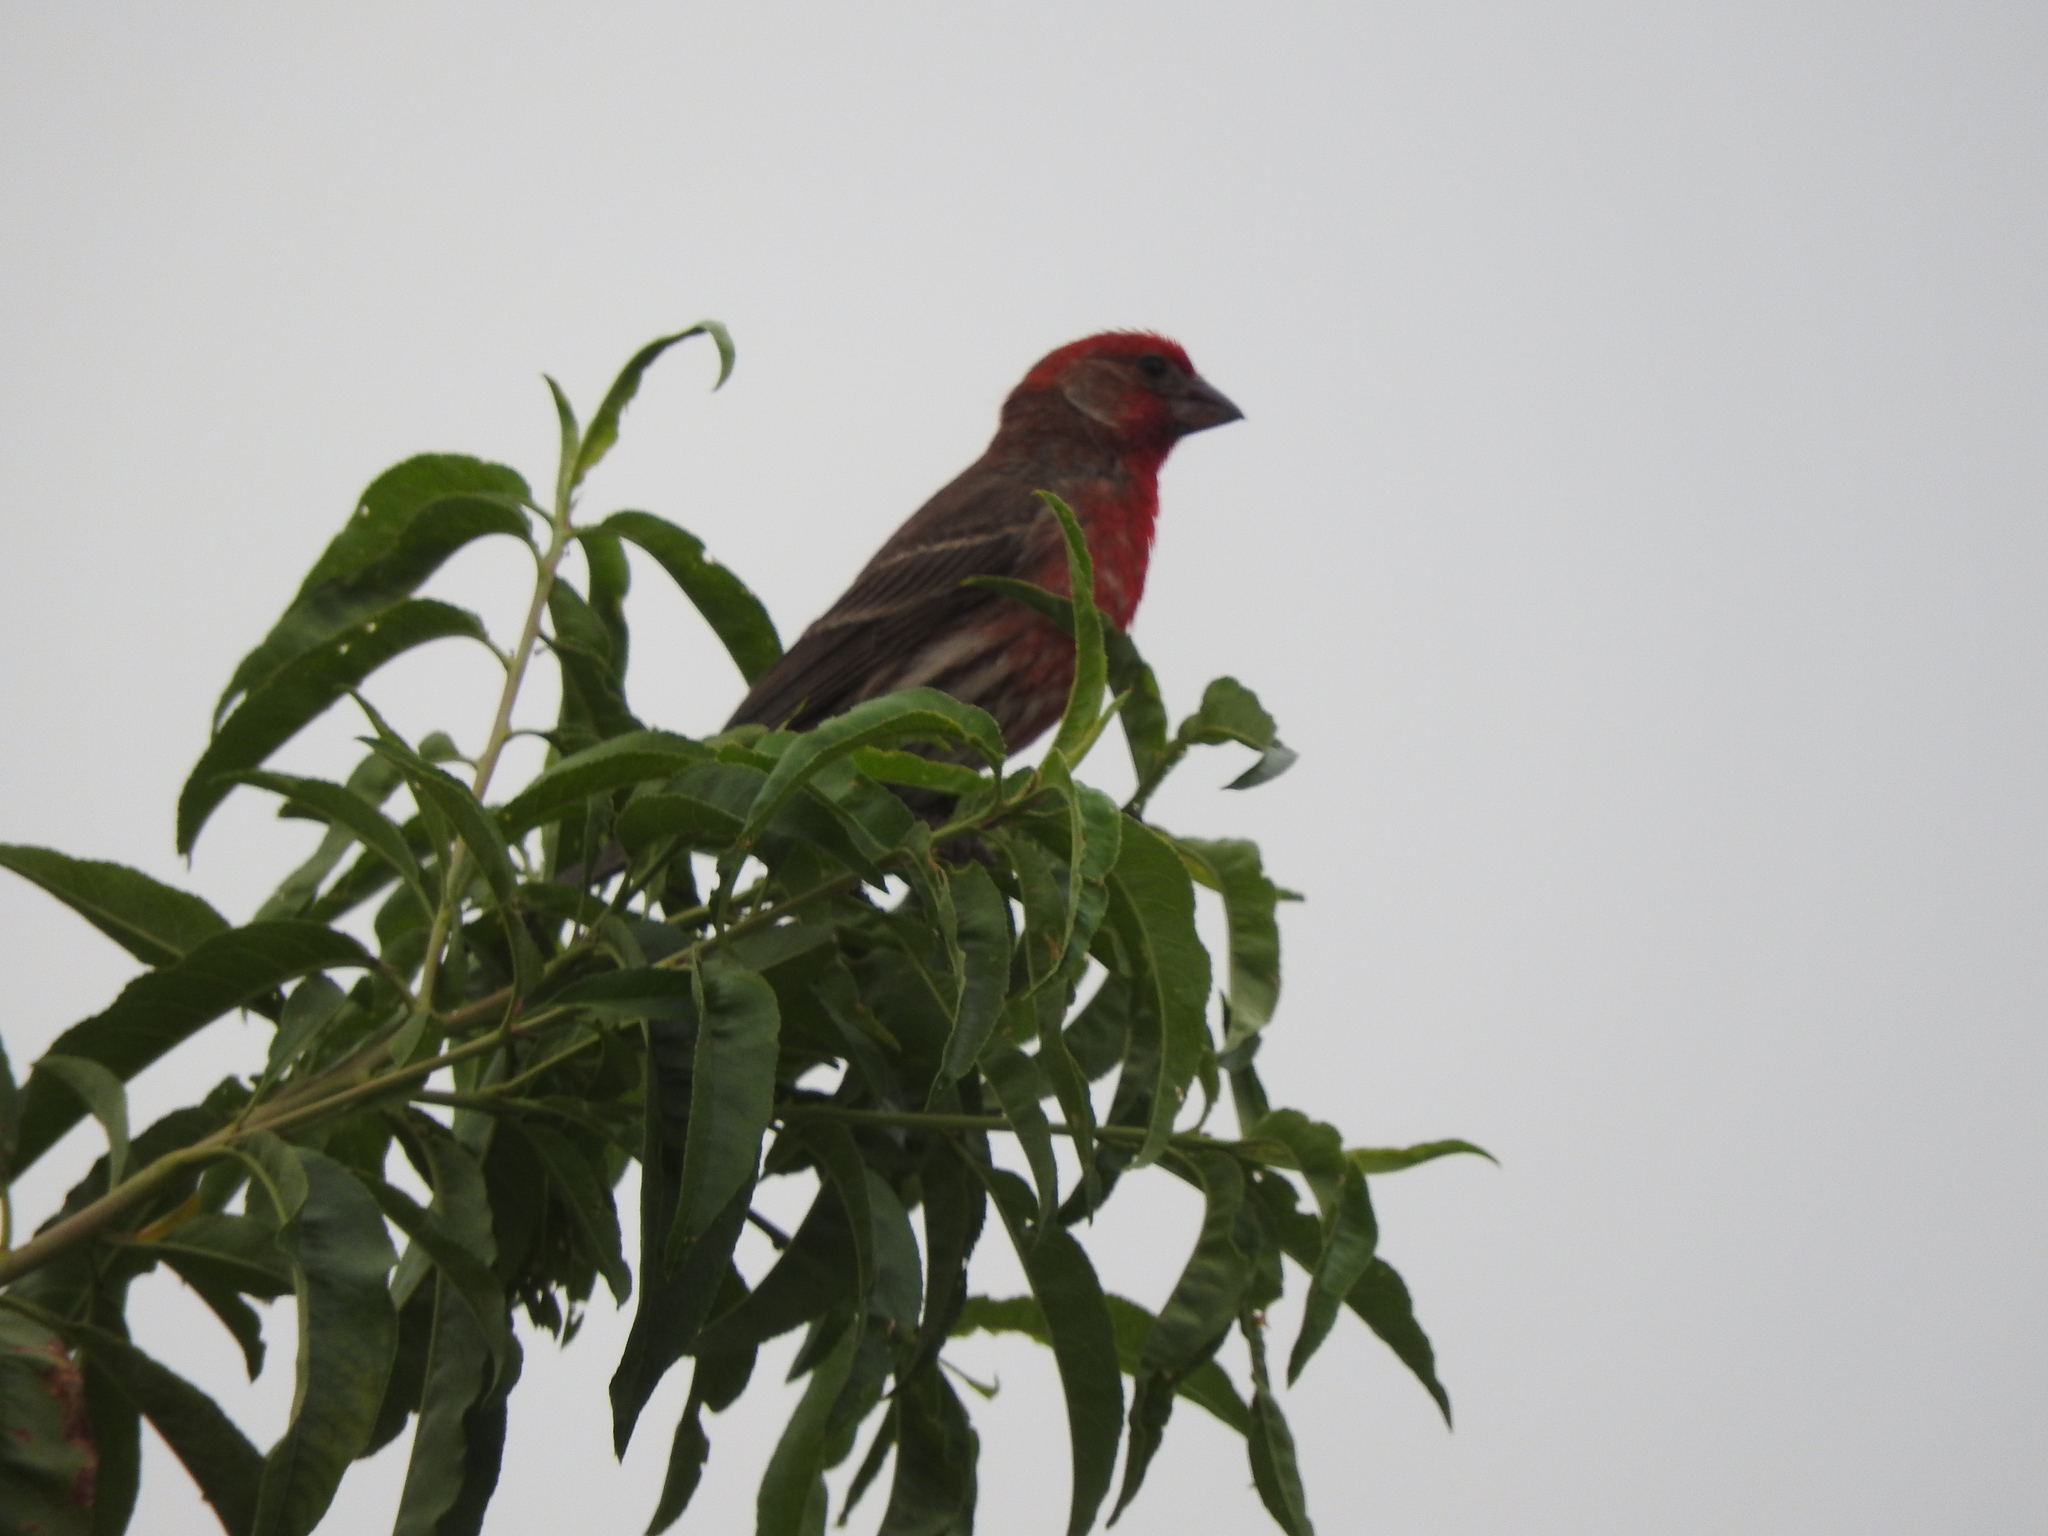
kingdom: Animalia
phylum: Chordata
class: Aves
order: Passeriformes
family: Fringillidae
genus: Haemorhous
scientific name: Haemorhous mexicanus
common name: House finch
